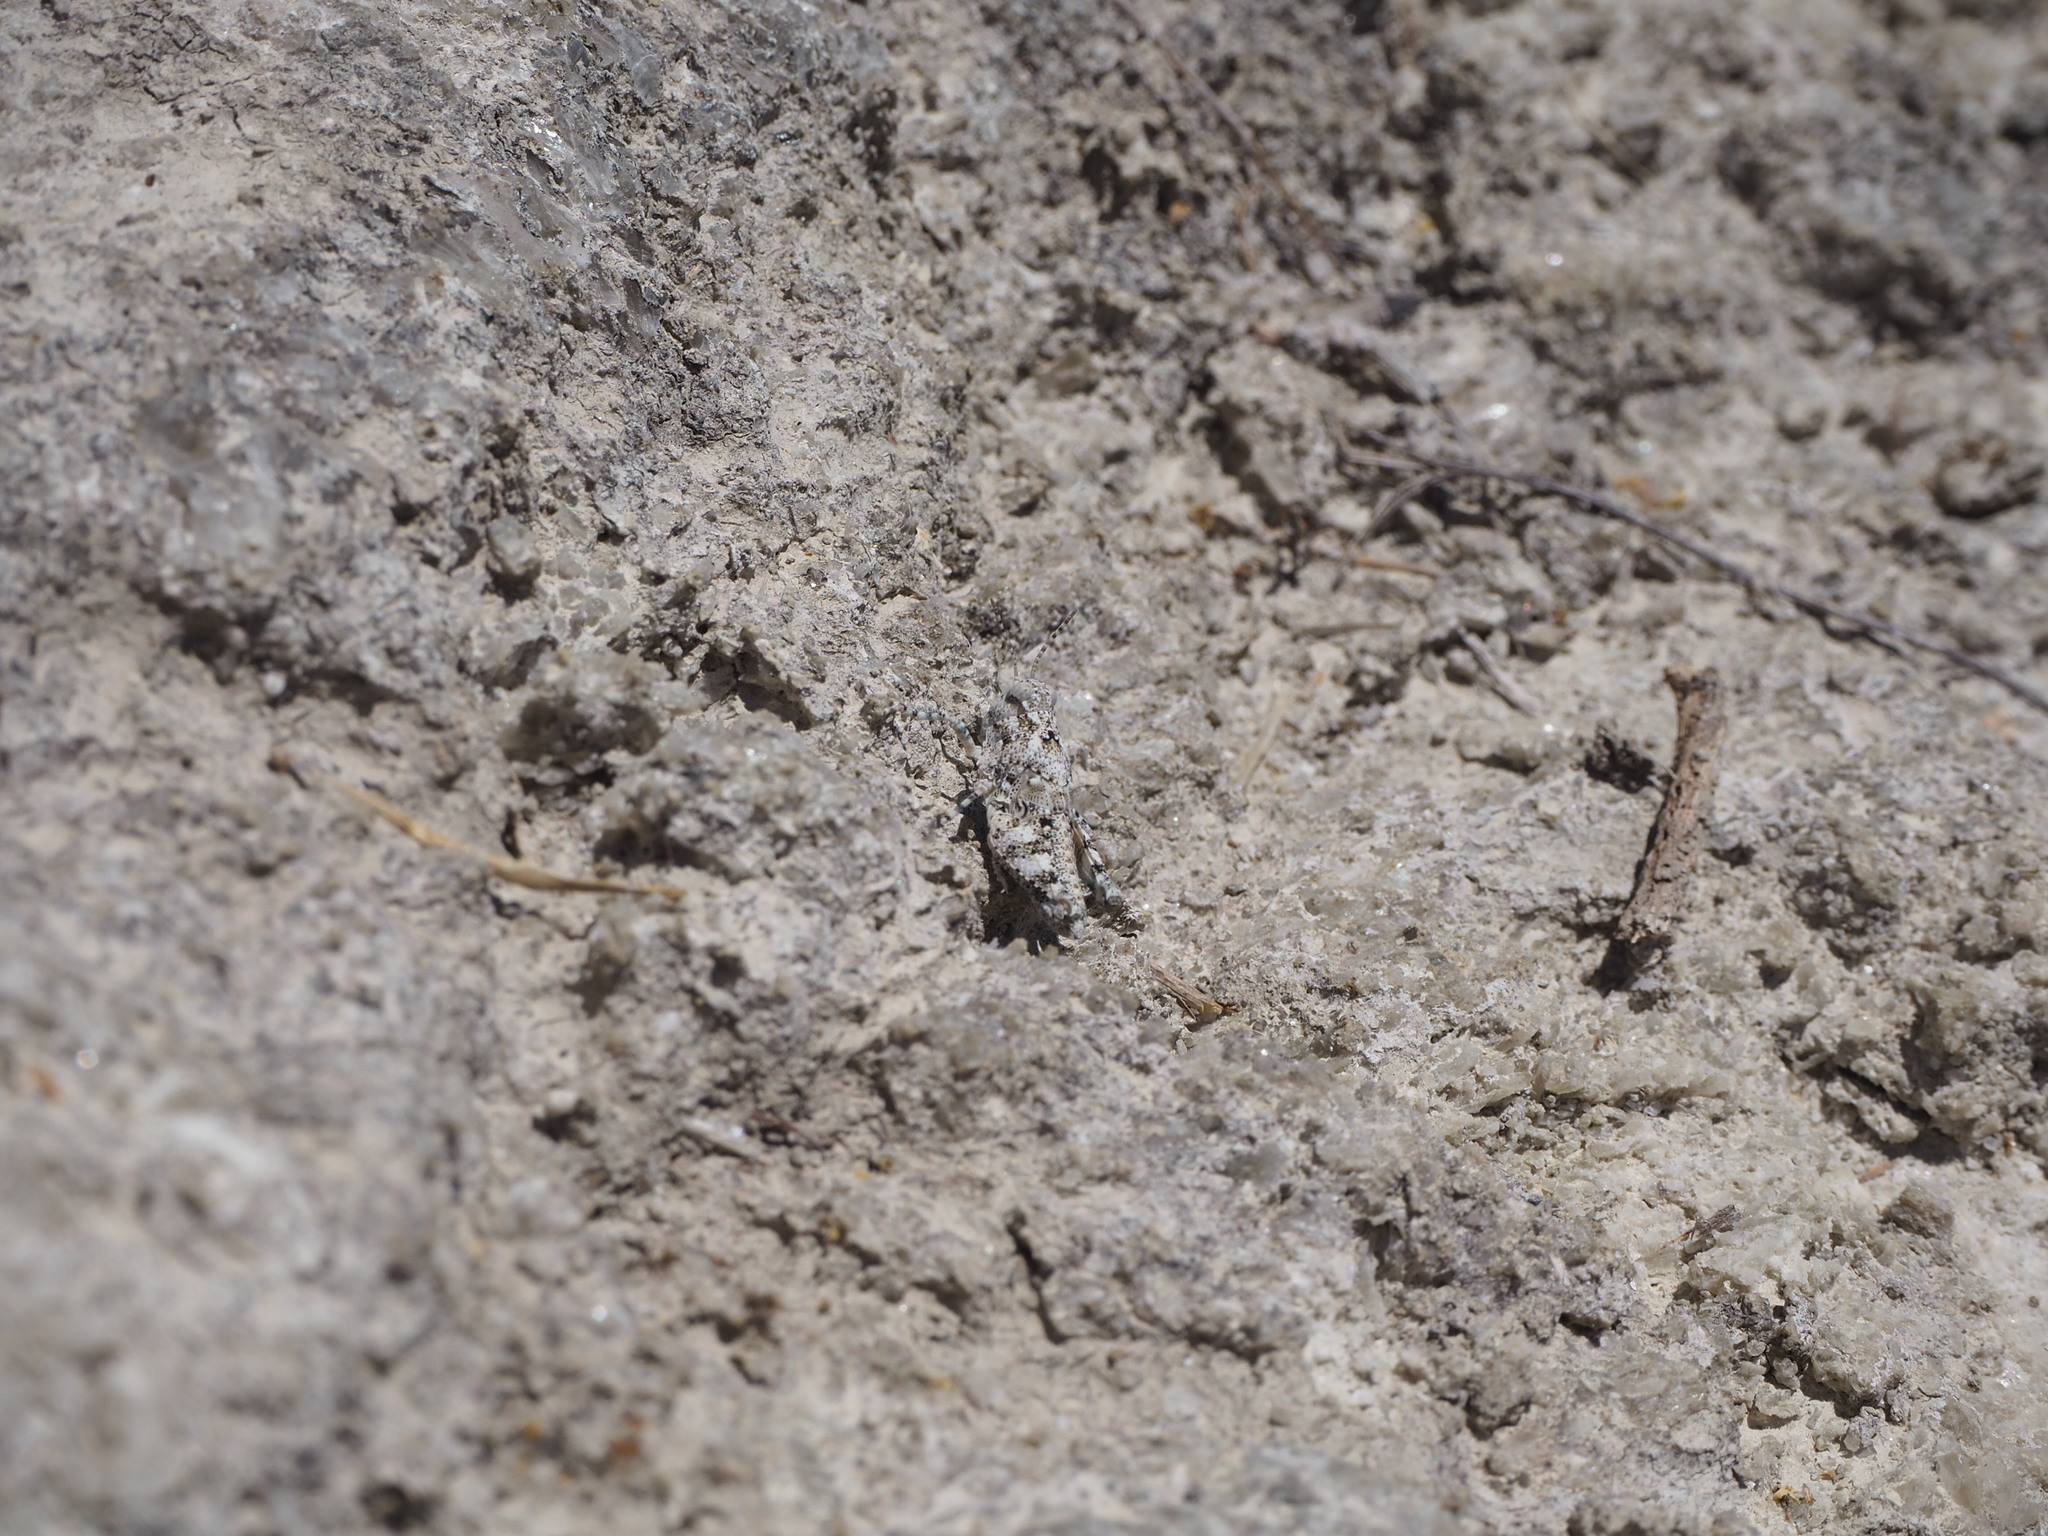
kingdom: Animalia
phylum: Arthropoda
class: Insecta
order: Orthoptera
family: Acrididae
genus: Sphingonotus
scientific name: Sphingonotus caerulans
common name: Blue-winged locust
